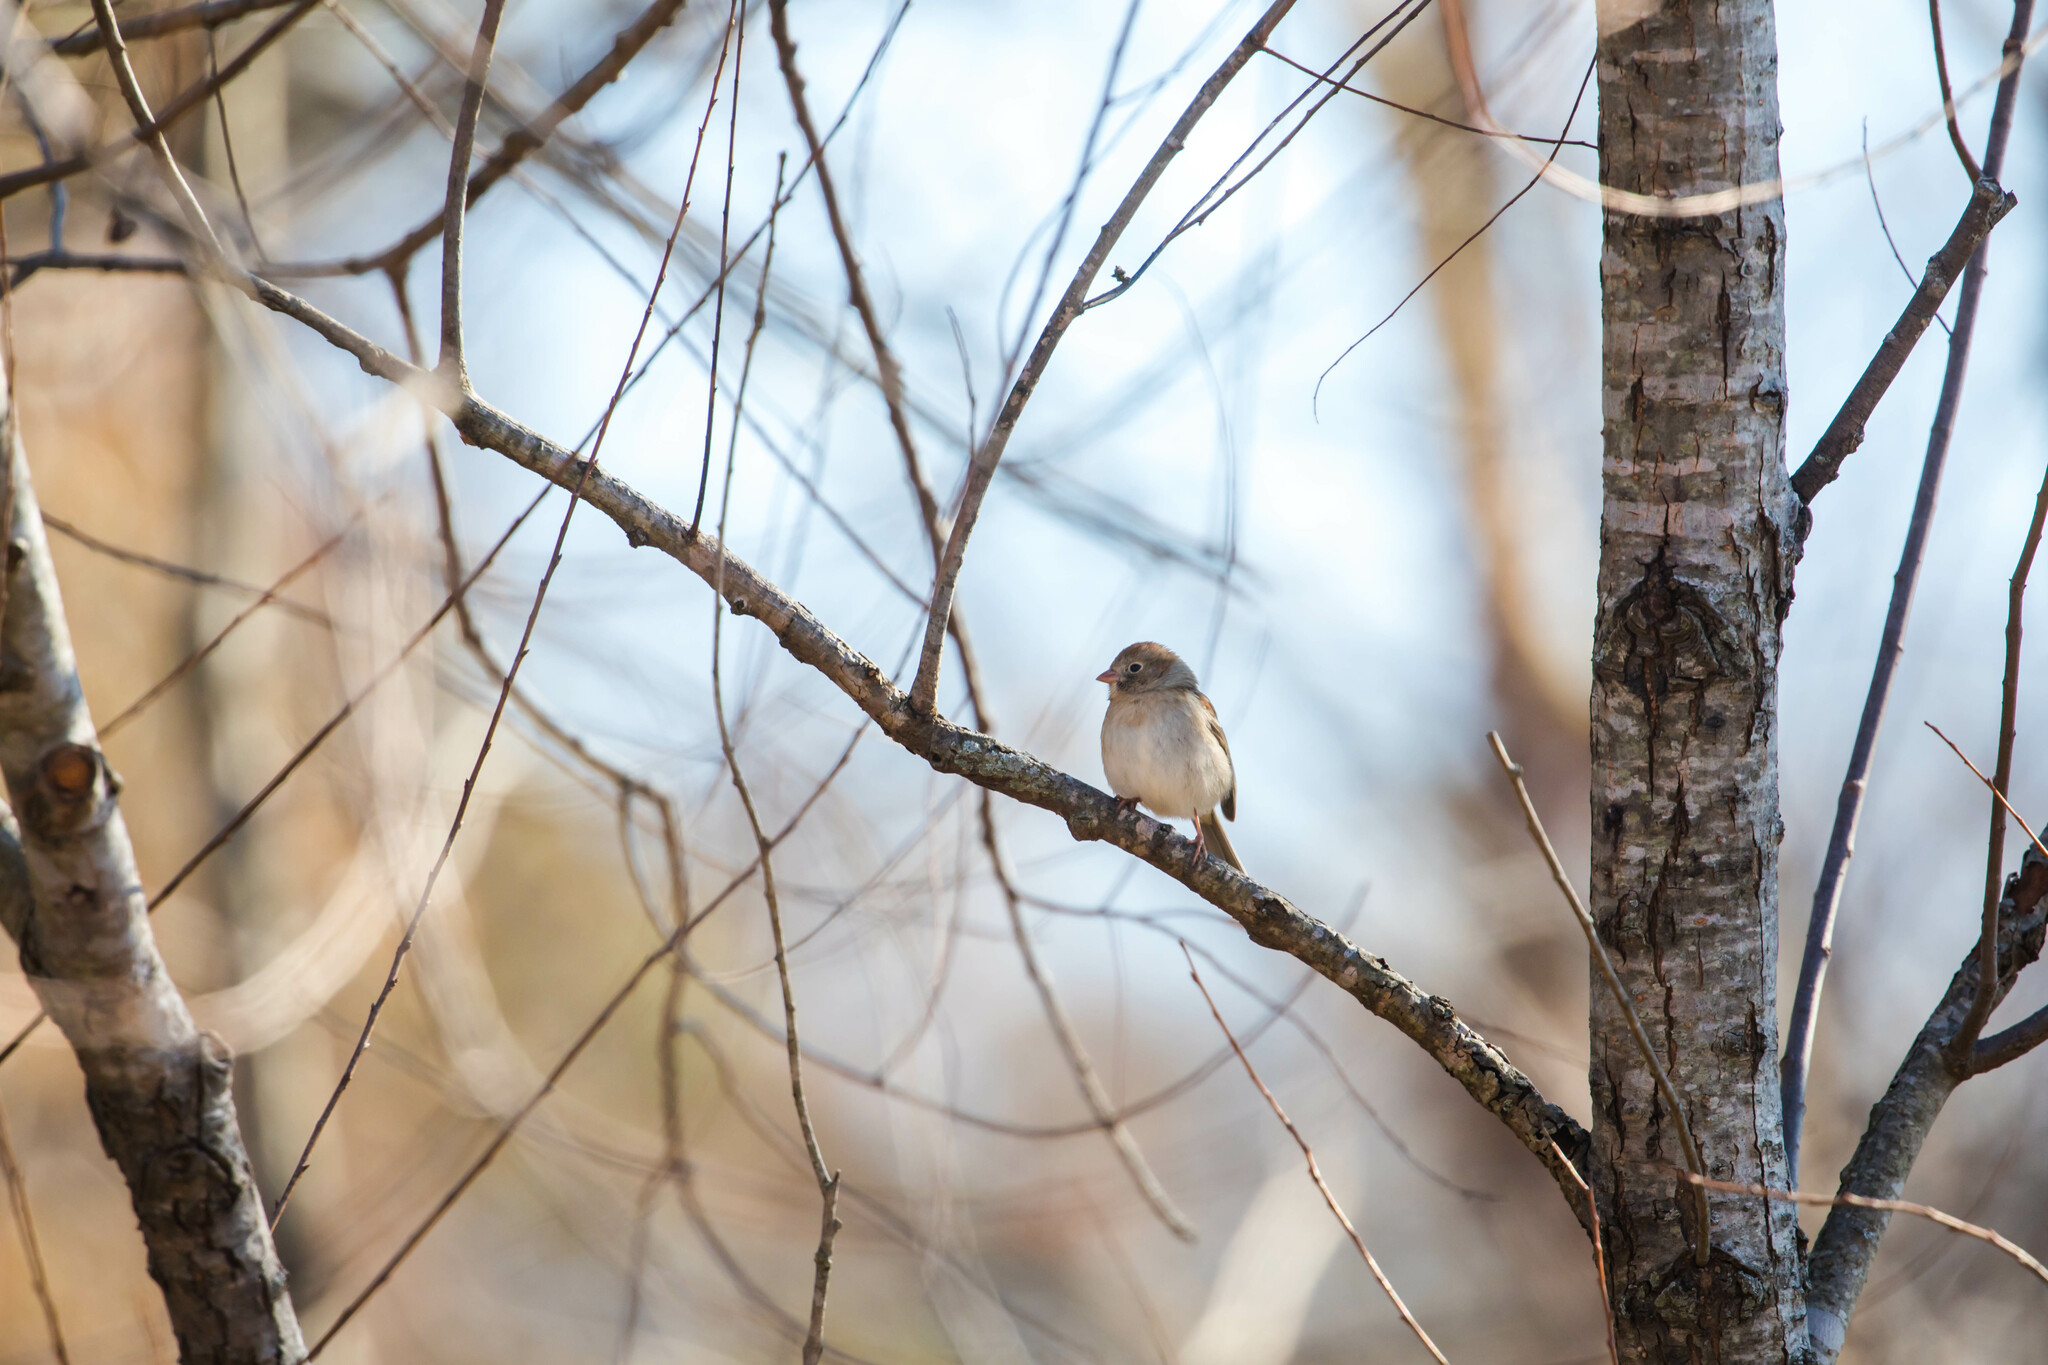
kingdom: Animalia
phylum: Chordata
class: Aves
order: Passeriformes
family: Passerellidae
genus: Spizella
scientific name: Spizella pusilla
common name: Field sparrow
